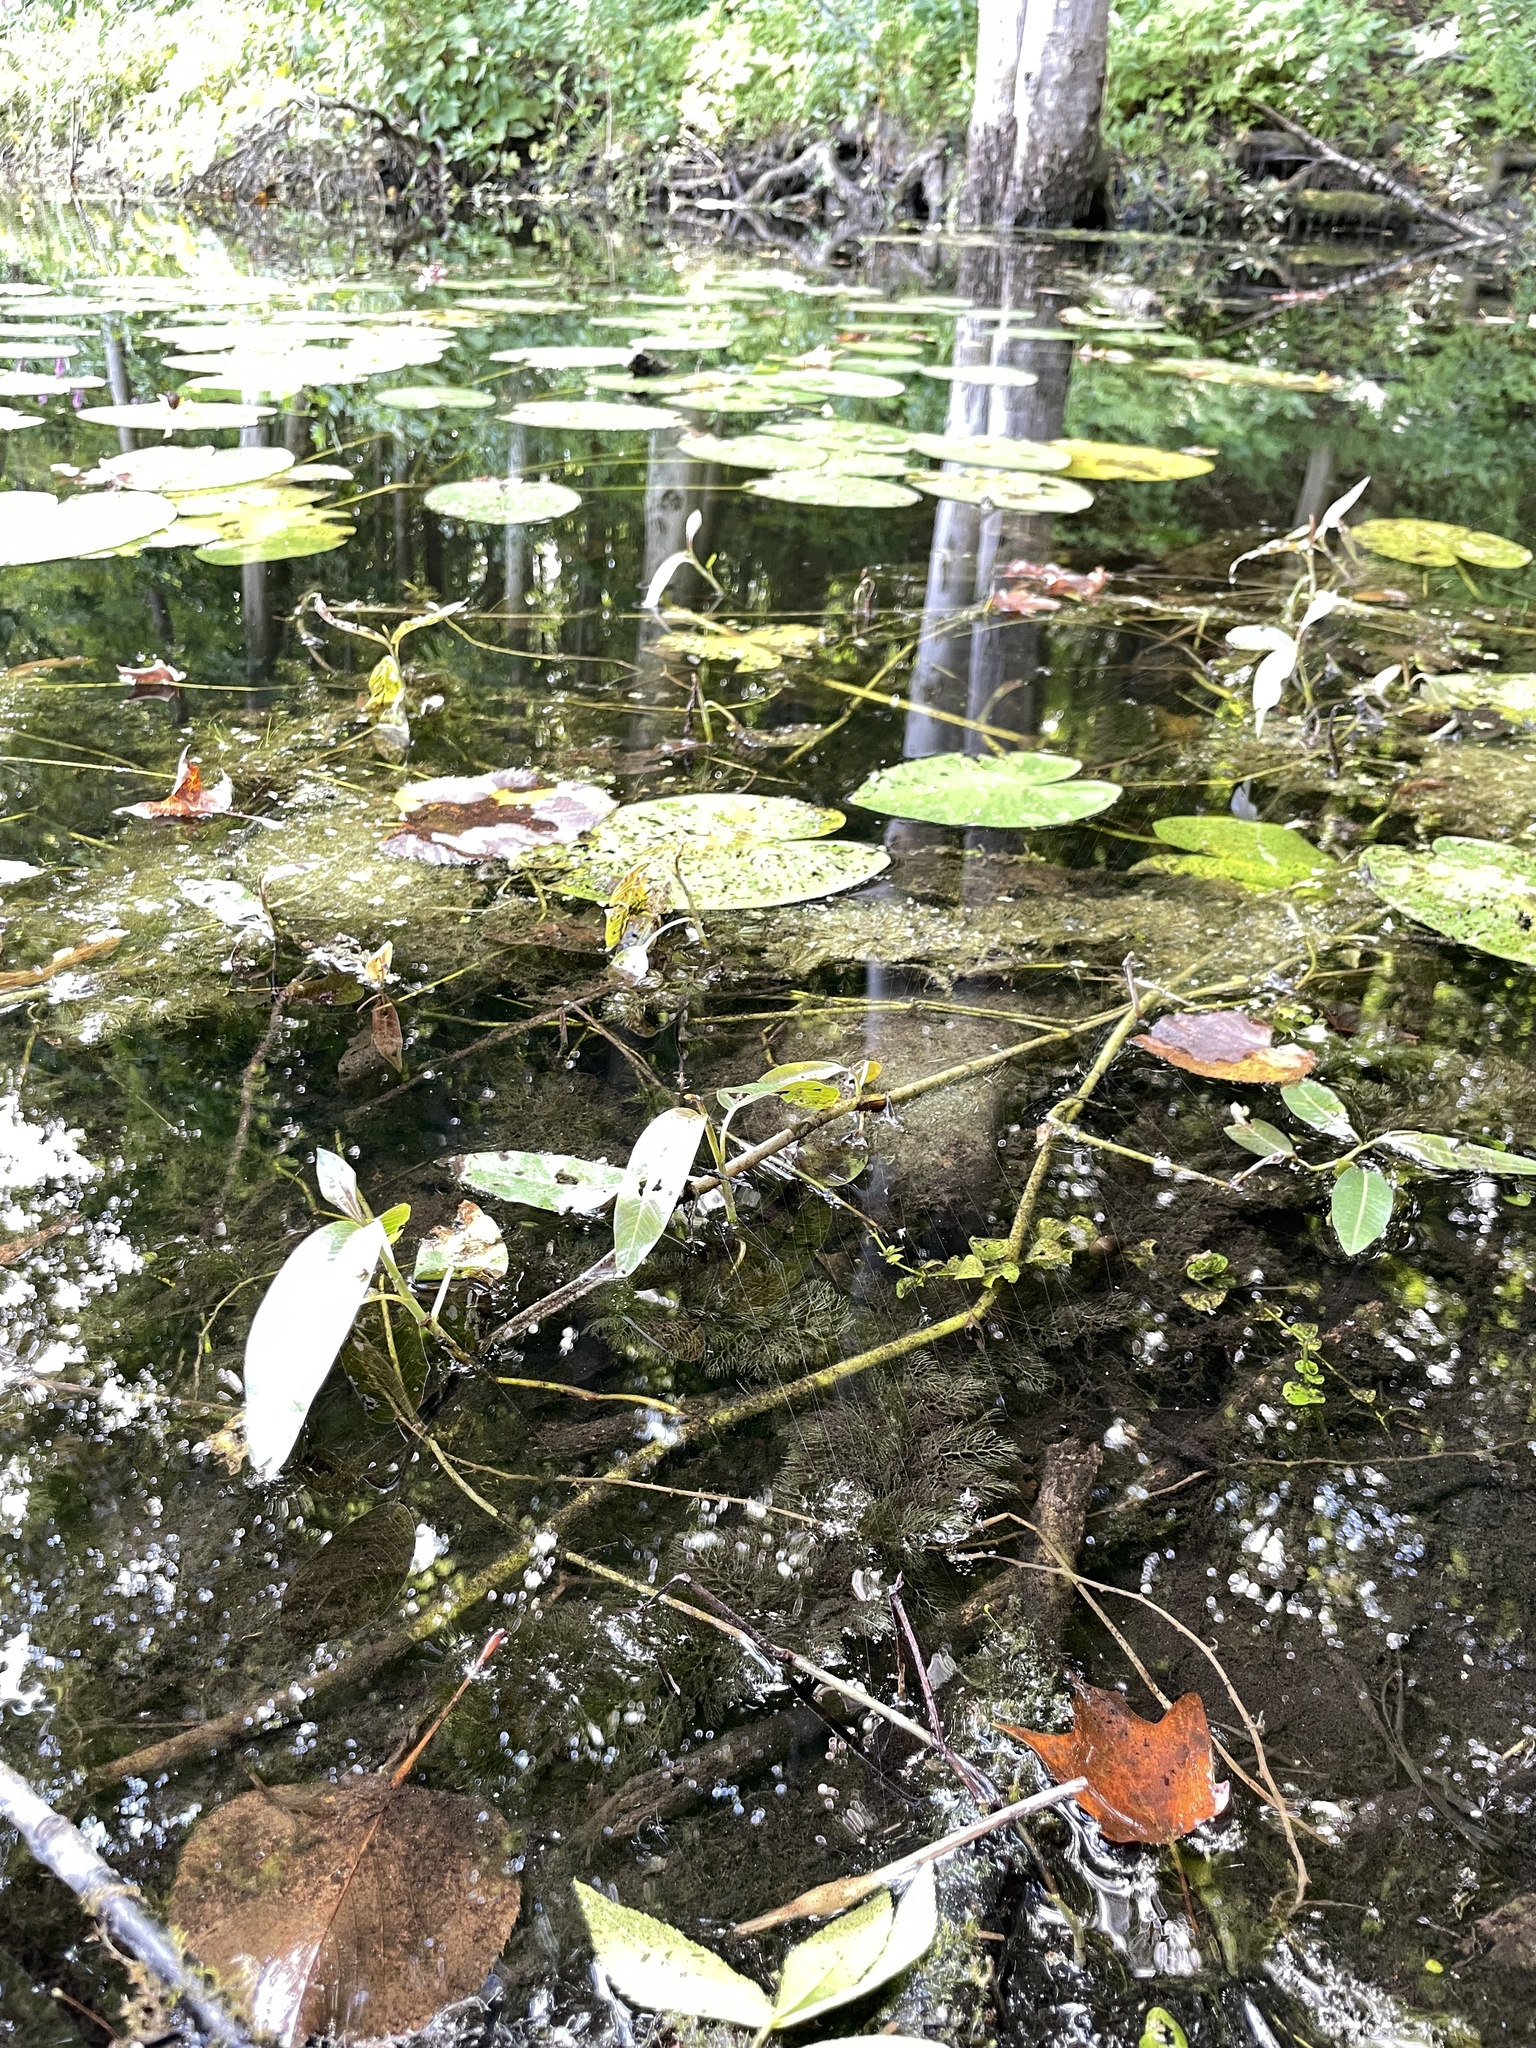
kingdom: Plantae
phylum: Tracheophyta
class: Magnoliopsida
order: Caryophyllales
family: Polygonaceae
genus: Persicaria
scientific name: Persicaria amphibia
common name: Amphibious bistort
